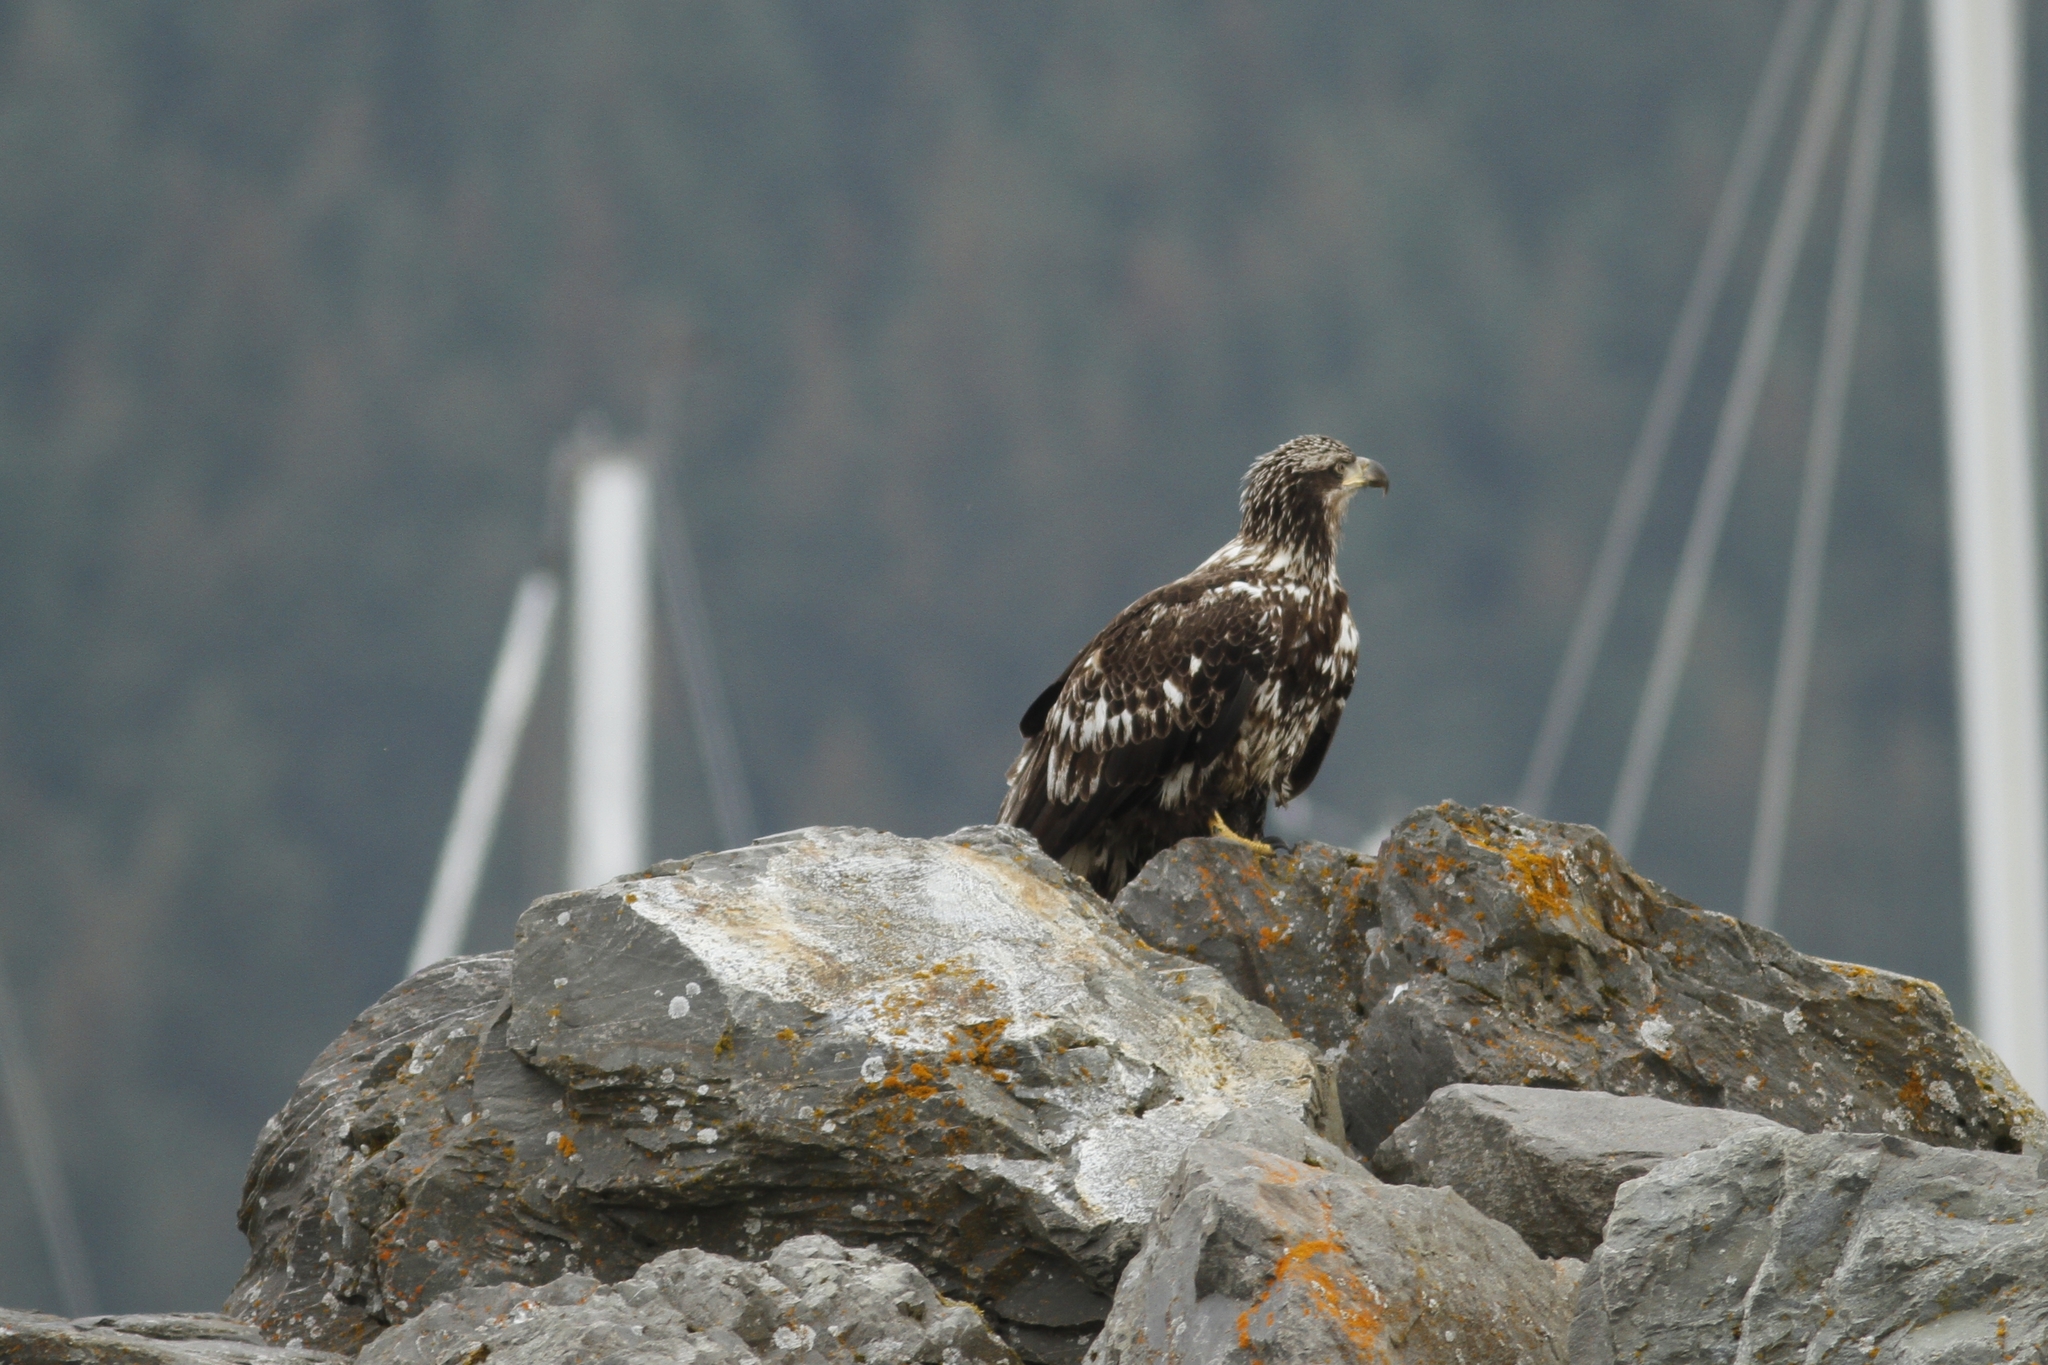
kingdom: Animalia
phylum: Chordata
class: Aves
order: Accipitriformes
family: Accipitridae
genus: Haliaeetus
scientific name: Haliaeetus leucocephalus
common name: Bald eagle
